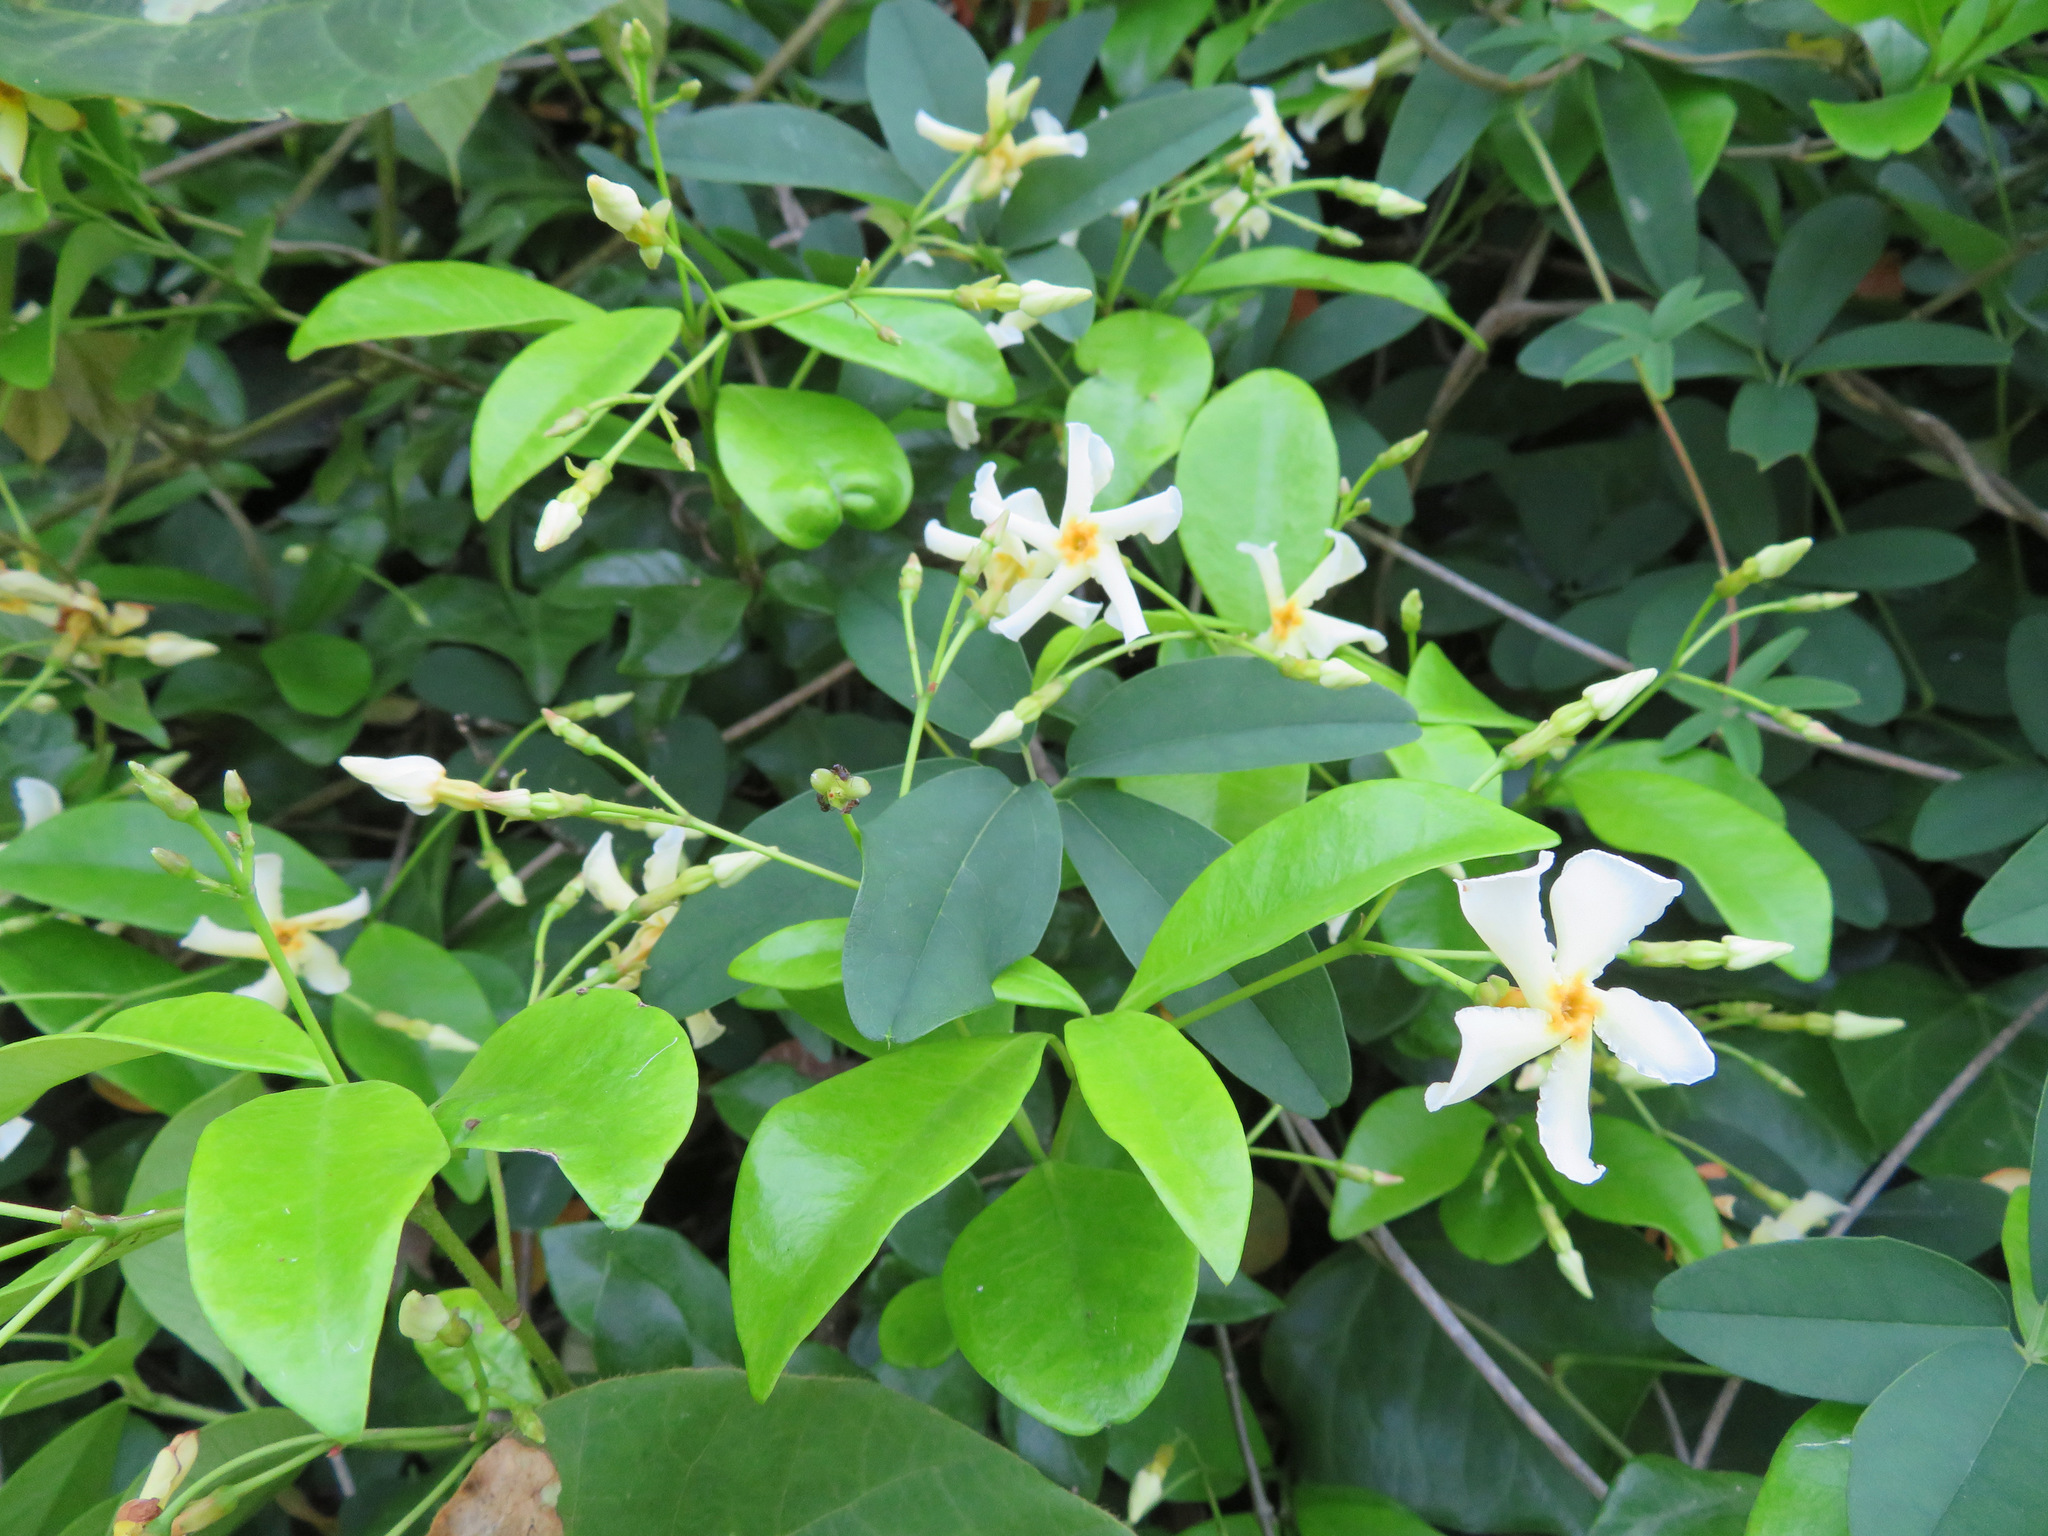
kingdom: Plantae
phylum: Tracheophyta
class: Magnoliopsida
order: Gentianales
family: Apocynaceae
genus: Trachelospermum
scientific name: Trachelospermum asiaticum
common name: Asiatic jasmine
